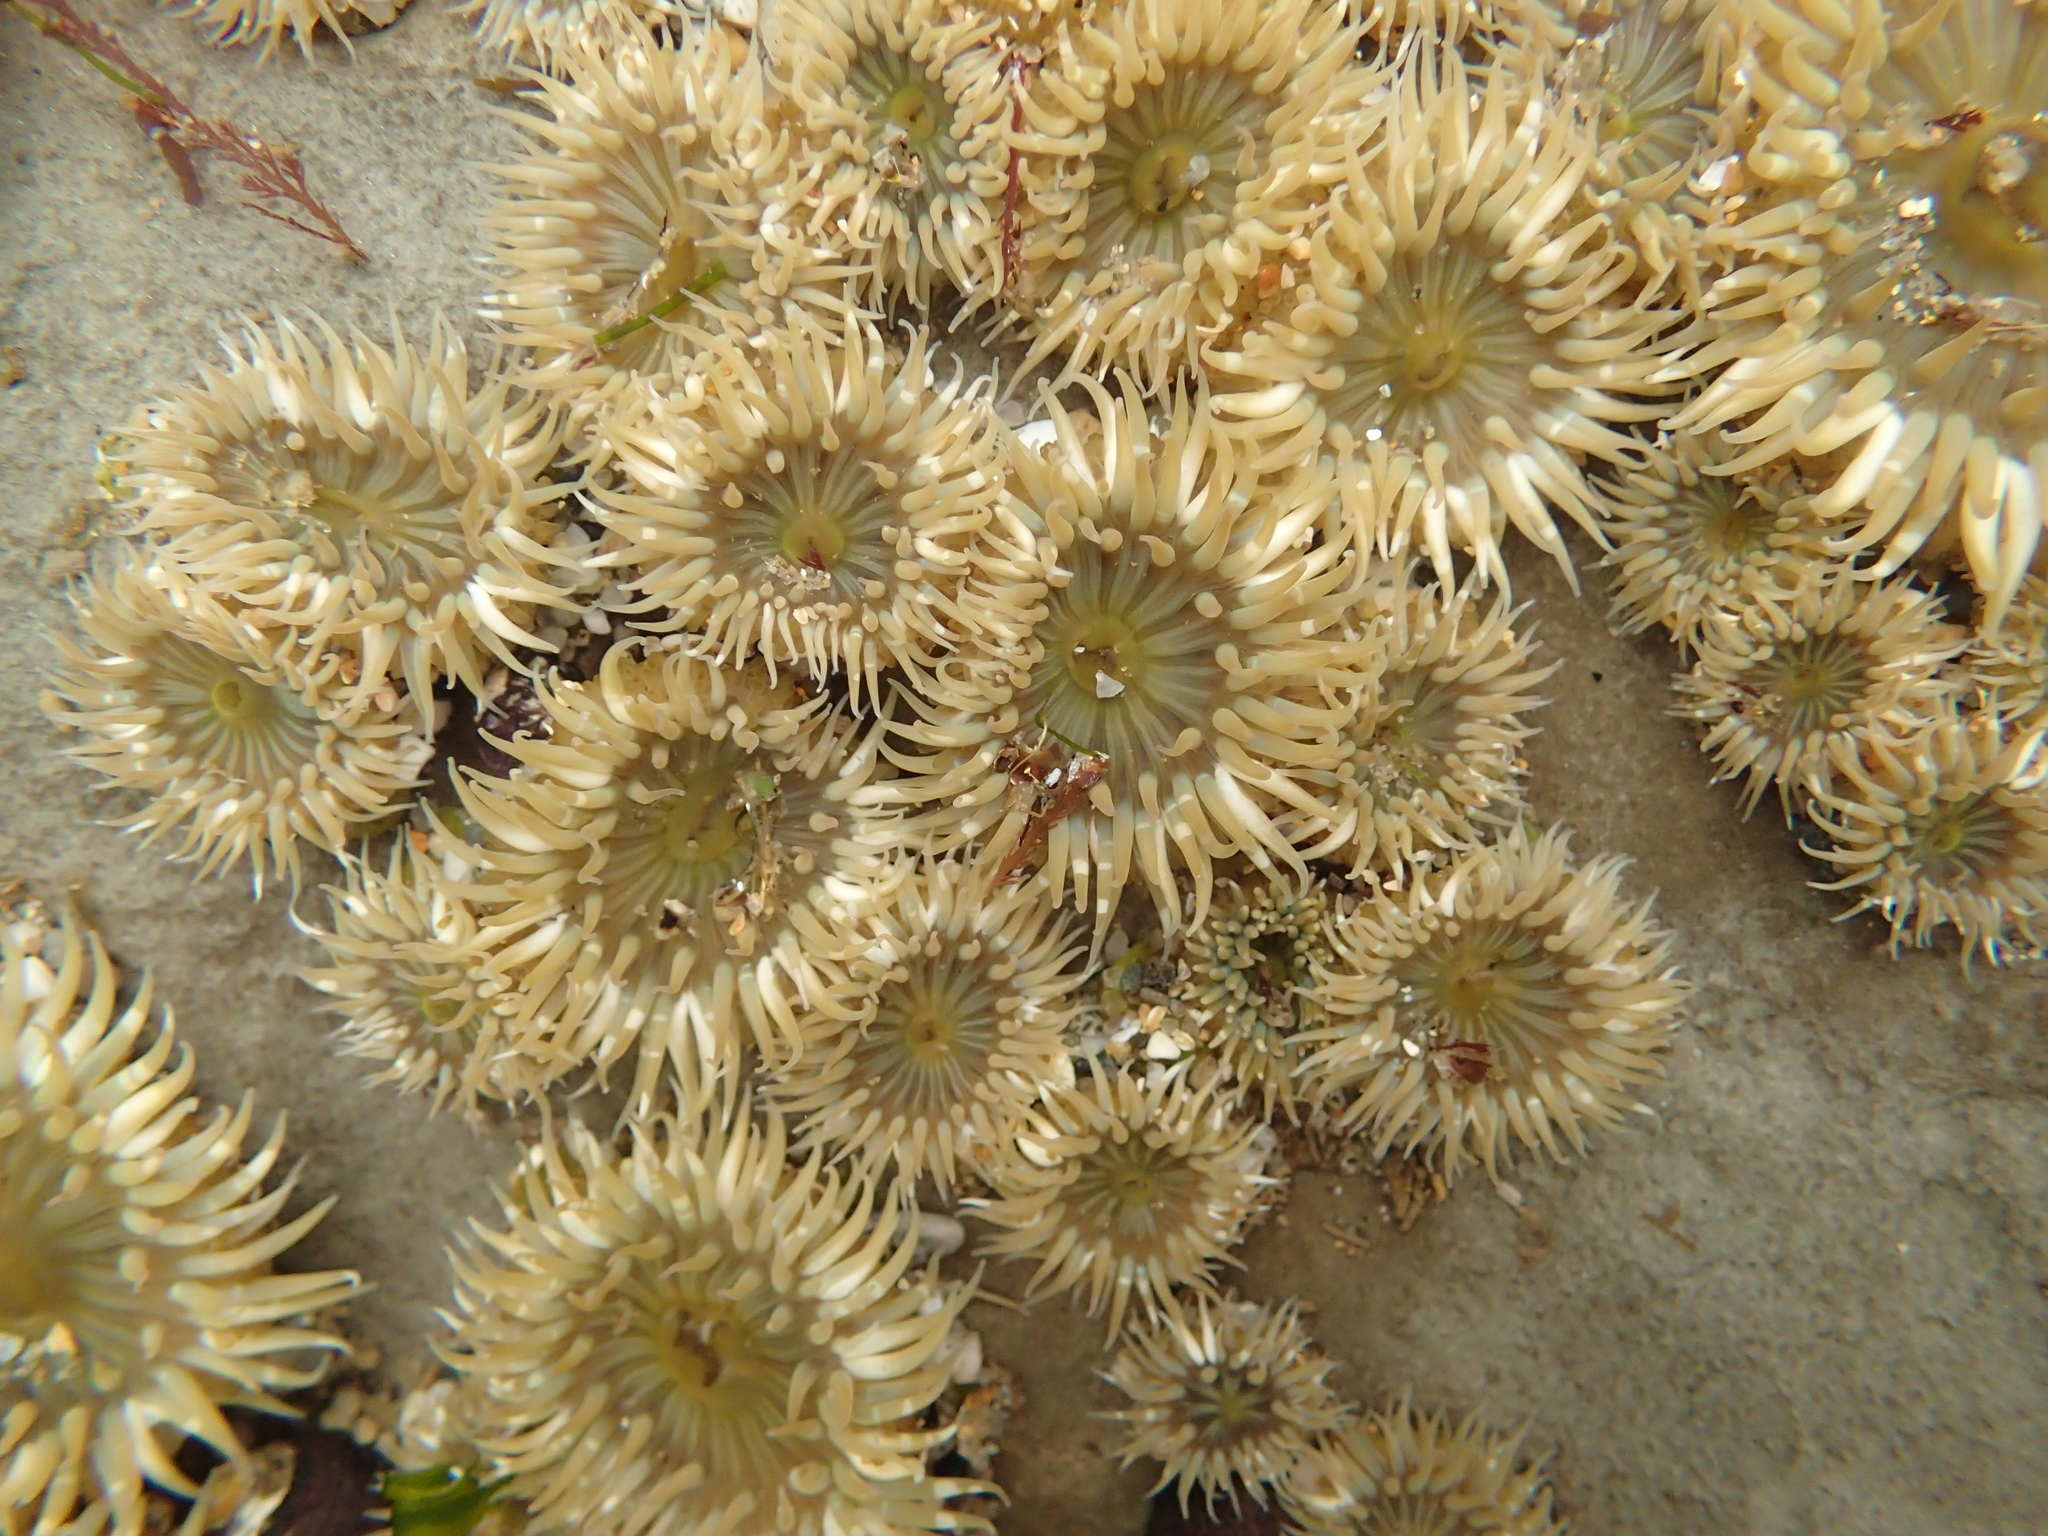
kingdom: Animalia
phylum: Cnidaria
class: Anthozoa
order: Actiniaria
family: Actiniidae
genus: Anthopleura
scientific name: Anthopleura elegantissima
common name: Clonal anemone
